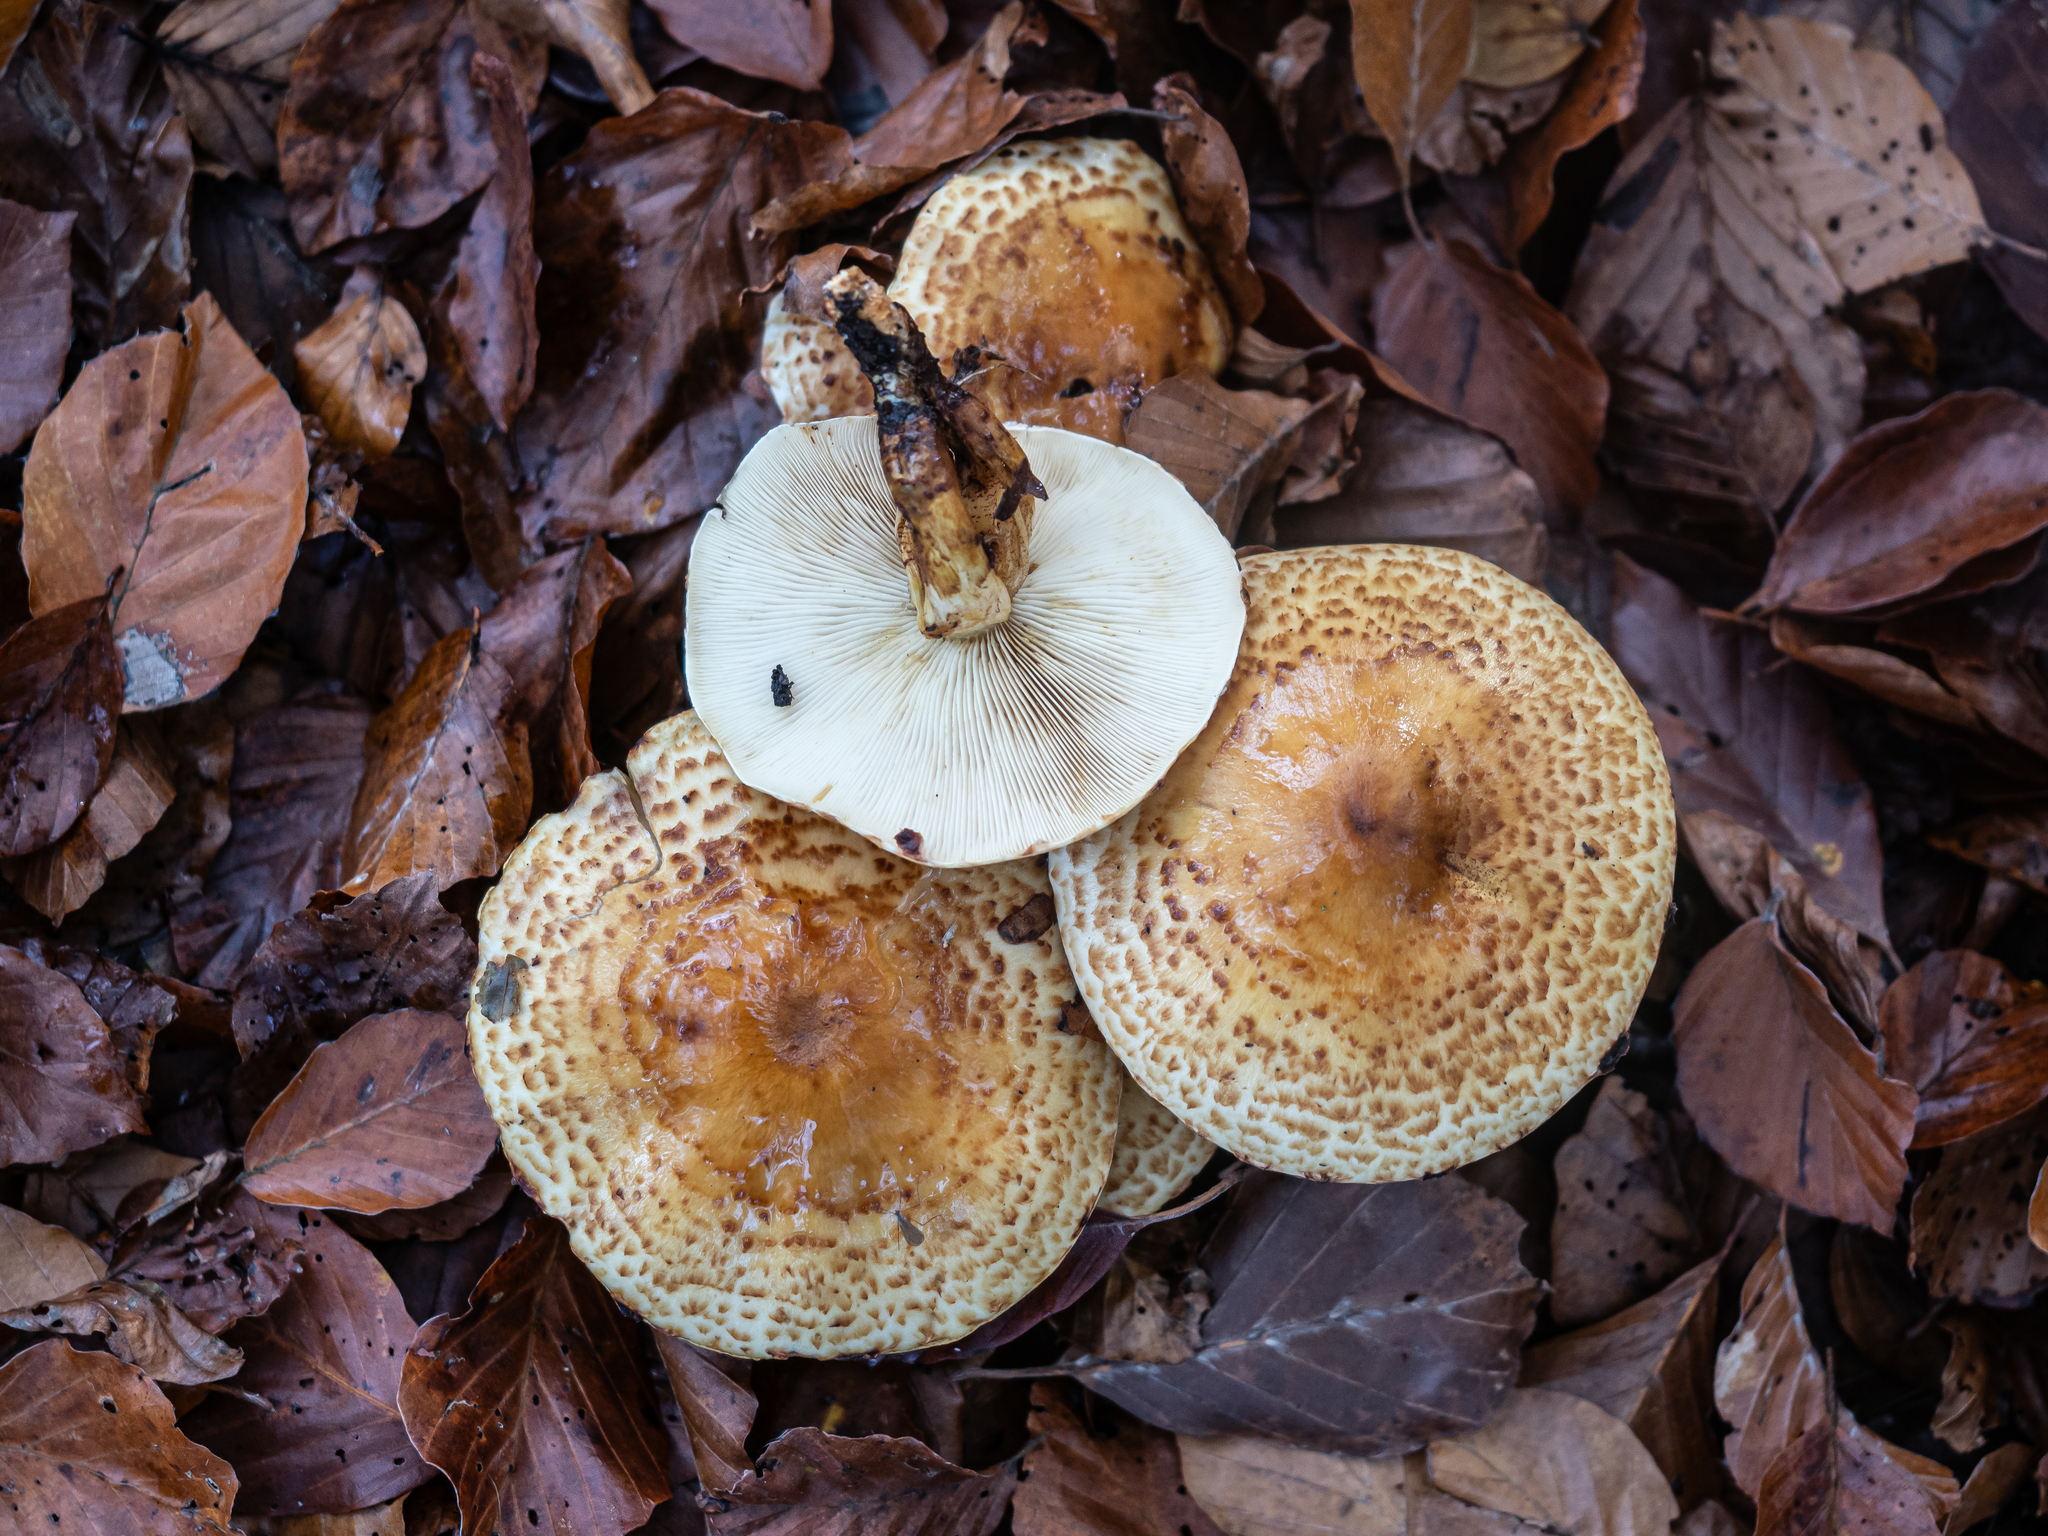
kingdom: Fungi
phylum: Basidiomycota
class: Agaricomycetes
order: Agaricales
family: Strophariaceae
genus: Pholiota
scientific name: Pholiota jahnii
